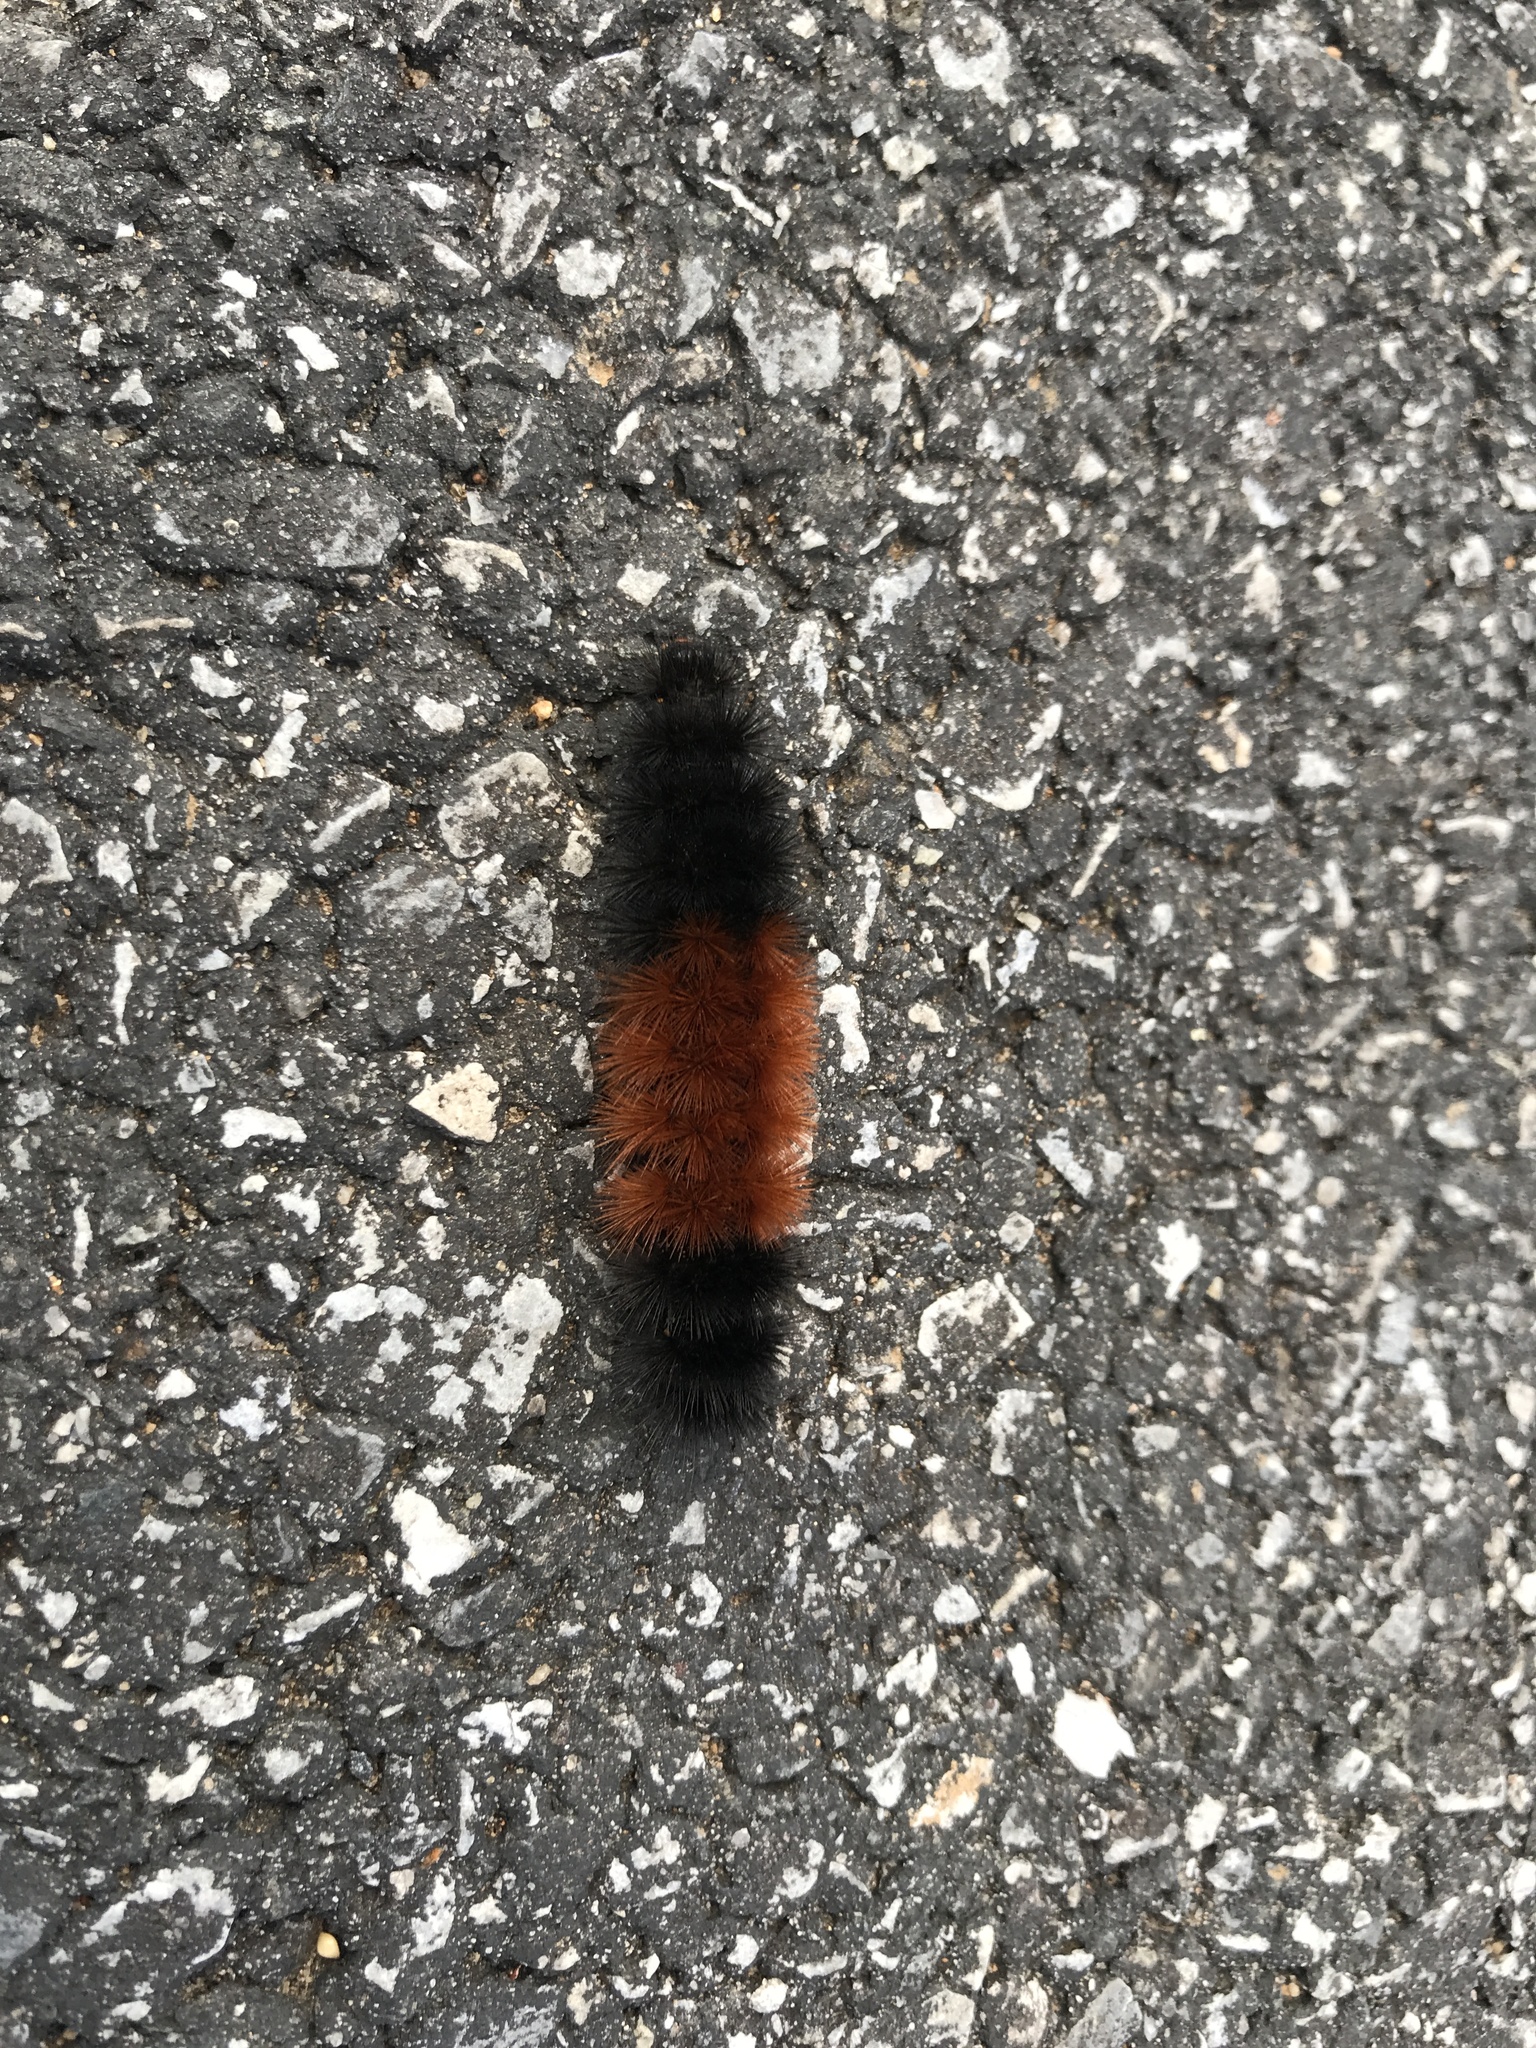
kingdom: Animalia
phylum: Arthropoda
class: Insecta
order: Lepidoptera
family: Erebidae
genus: Pyrrharctia
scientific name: Pyrrharctia isabella
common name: Isabella tiger moth
